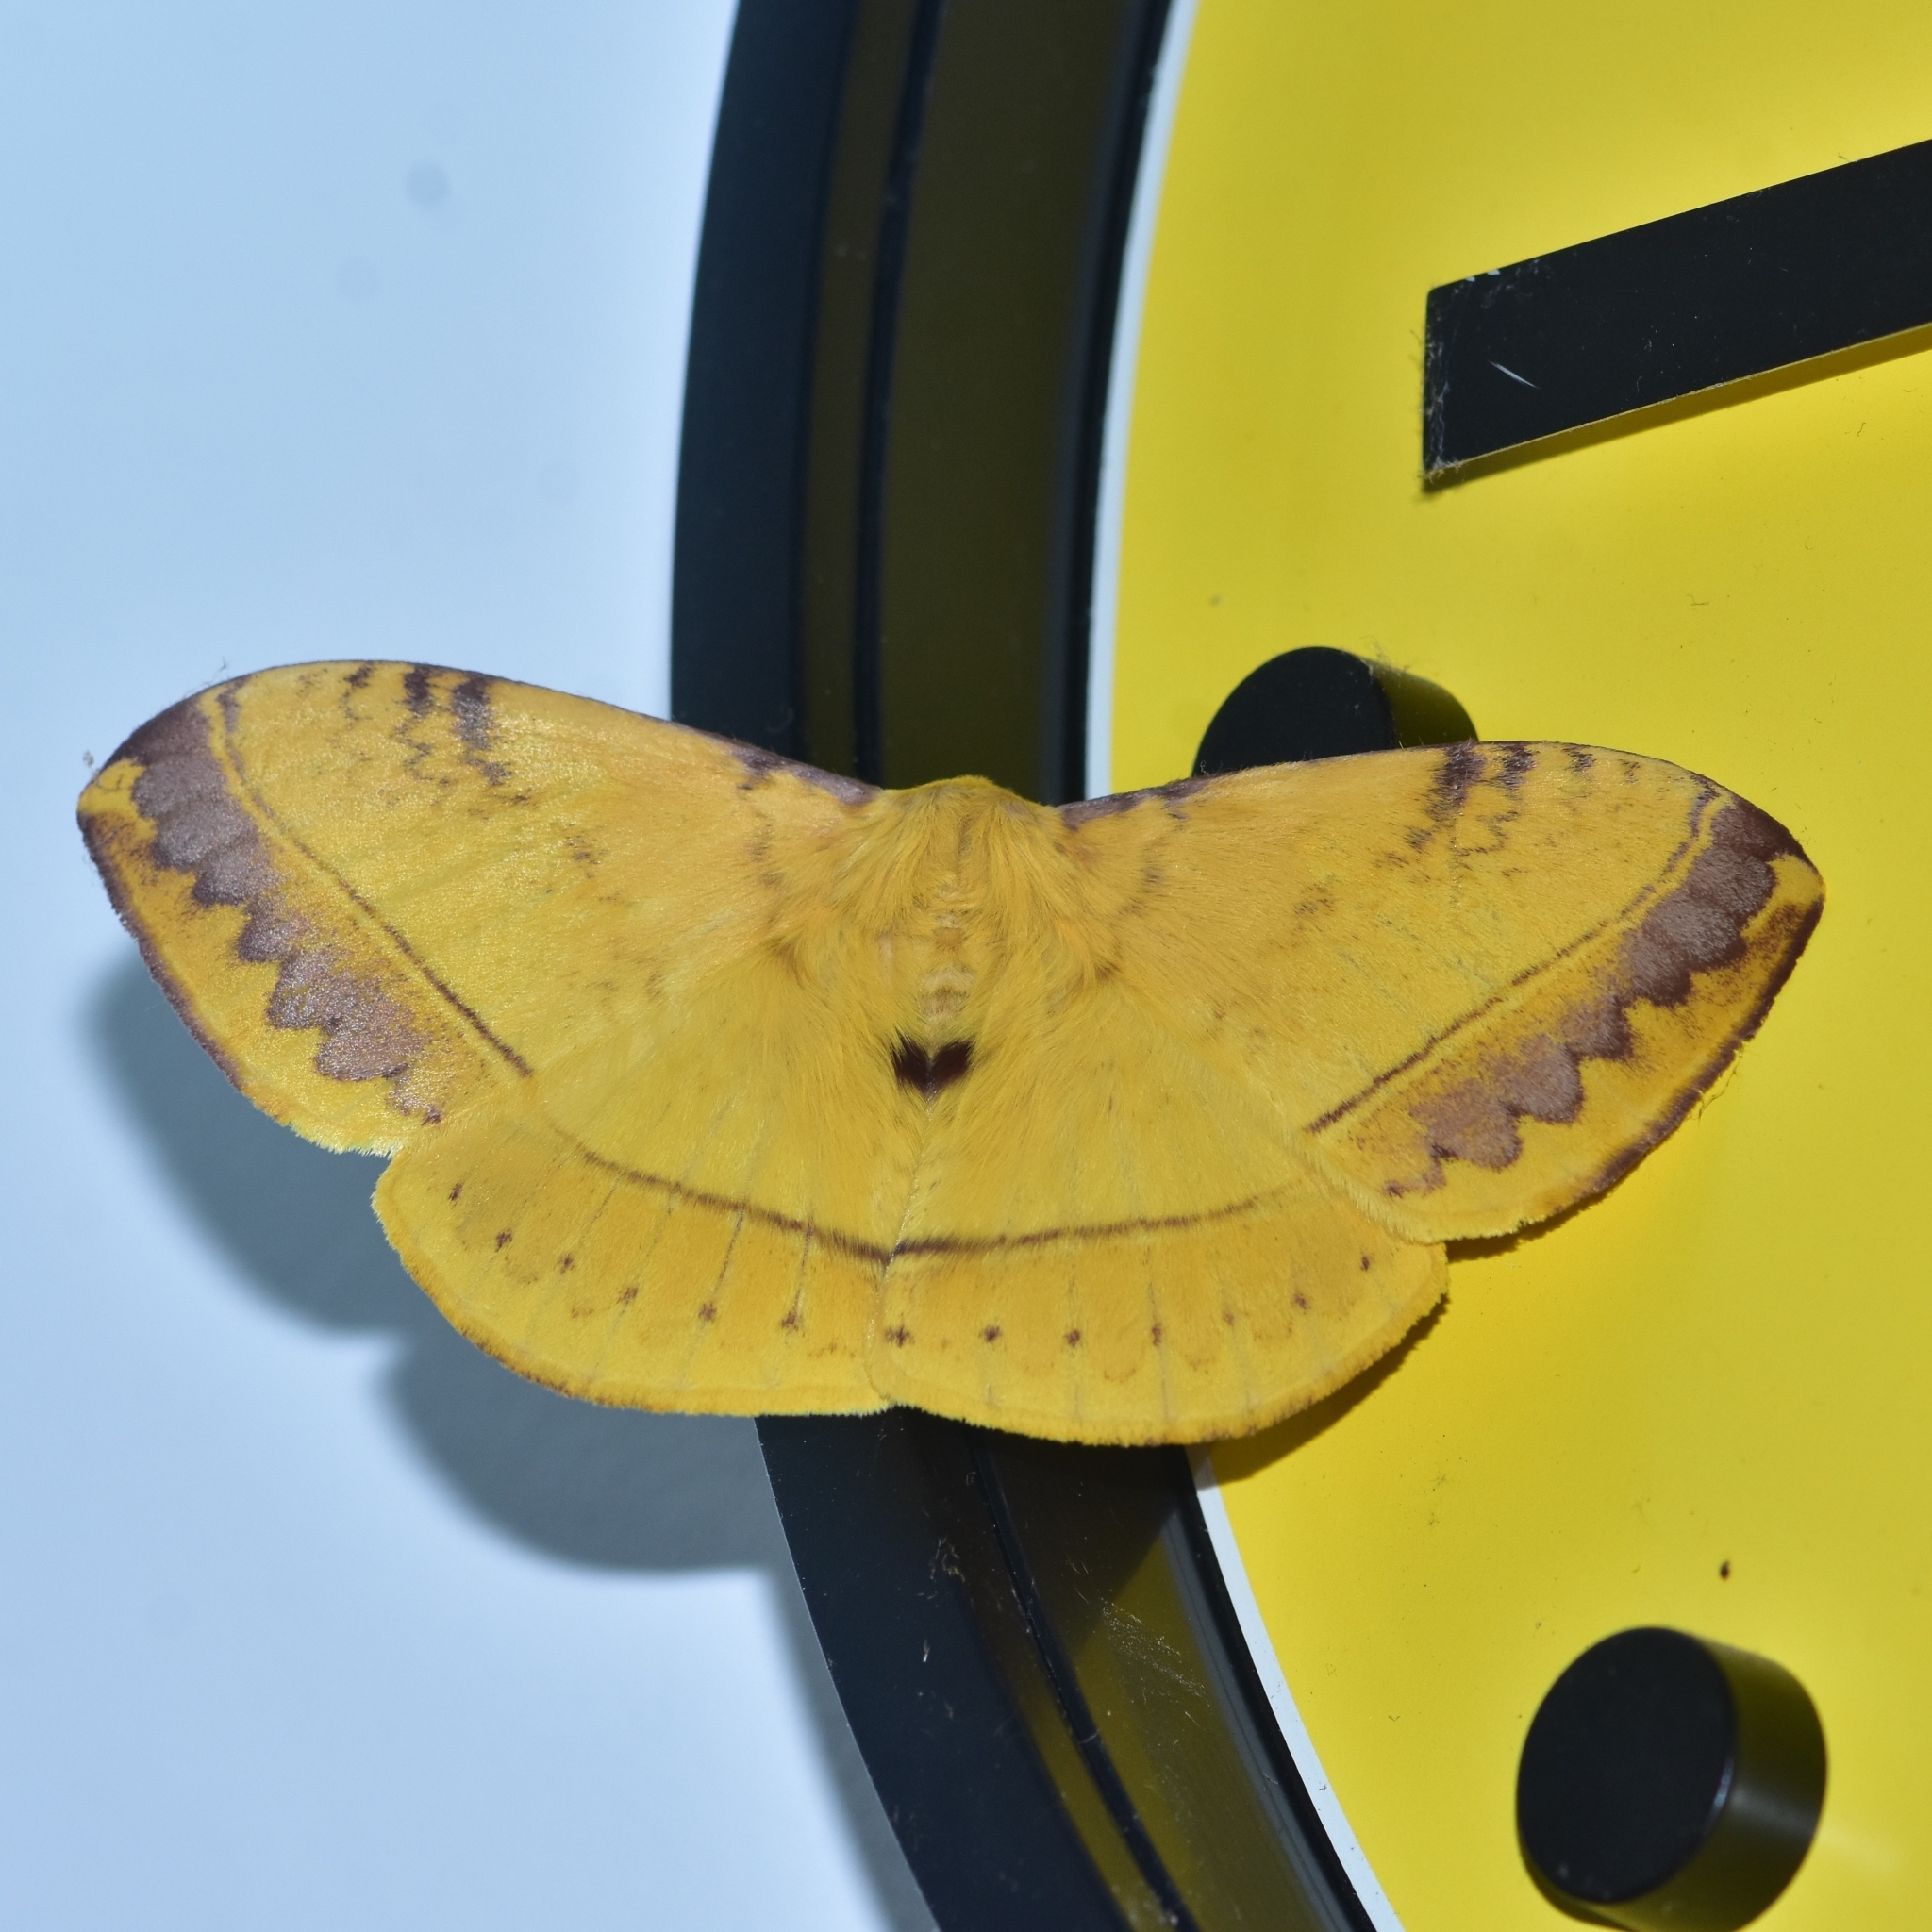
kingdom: Animalia
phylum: Arthropoda
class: Insecta
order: Lepidoptera
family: Eupterotidae
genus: Eupterote
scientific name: Eupterote mollifera
